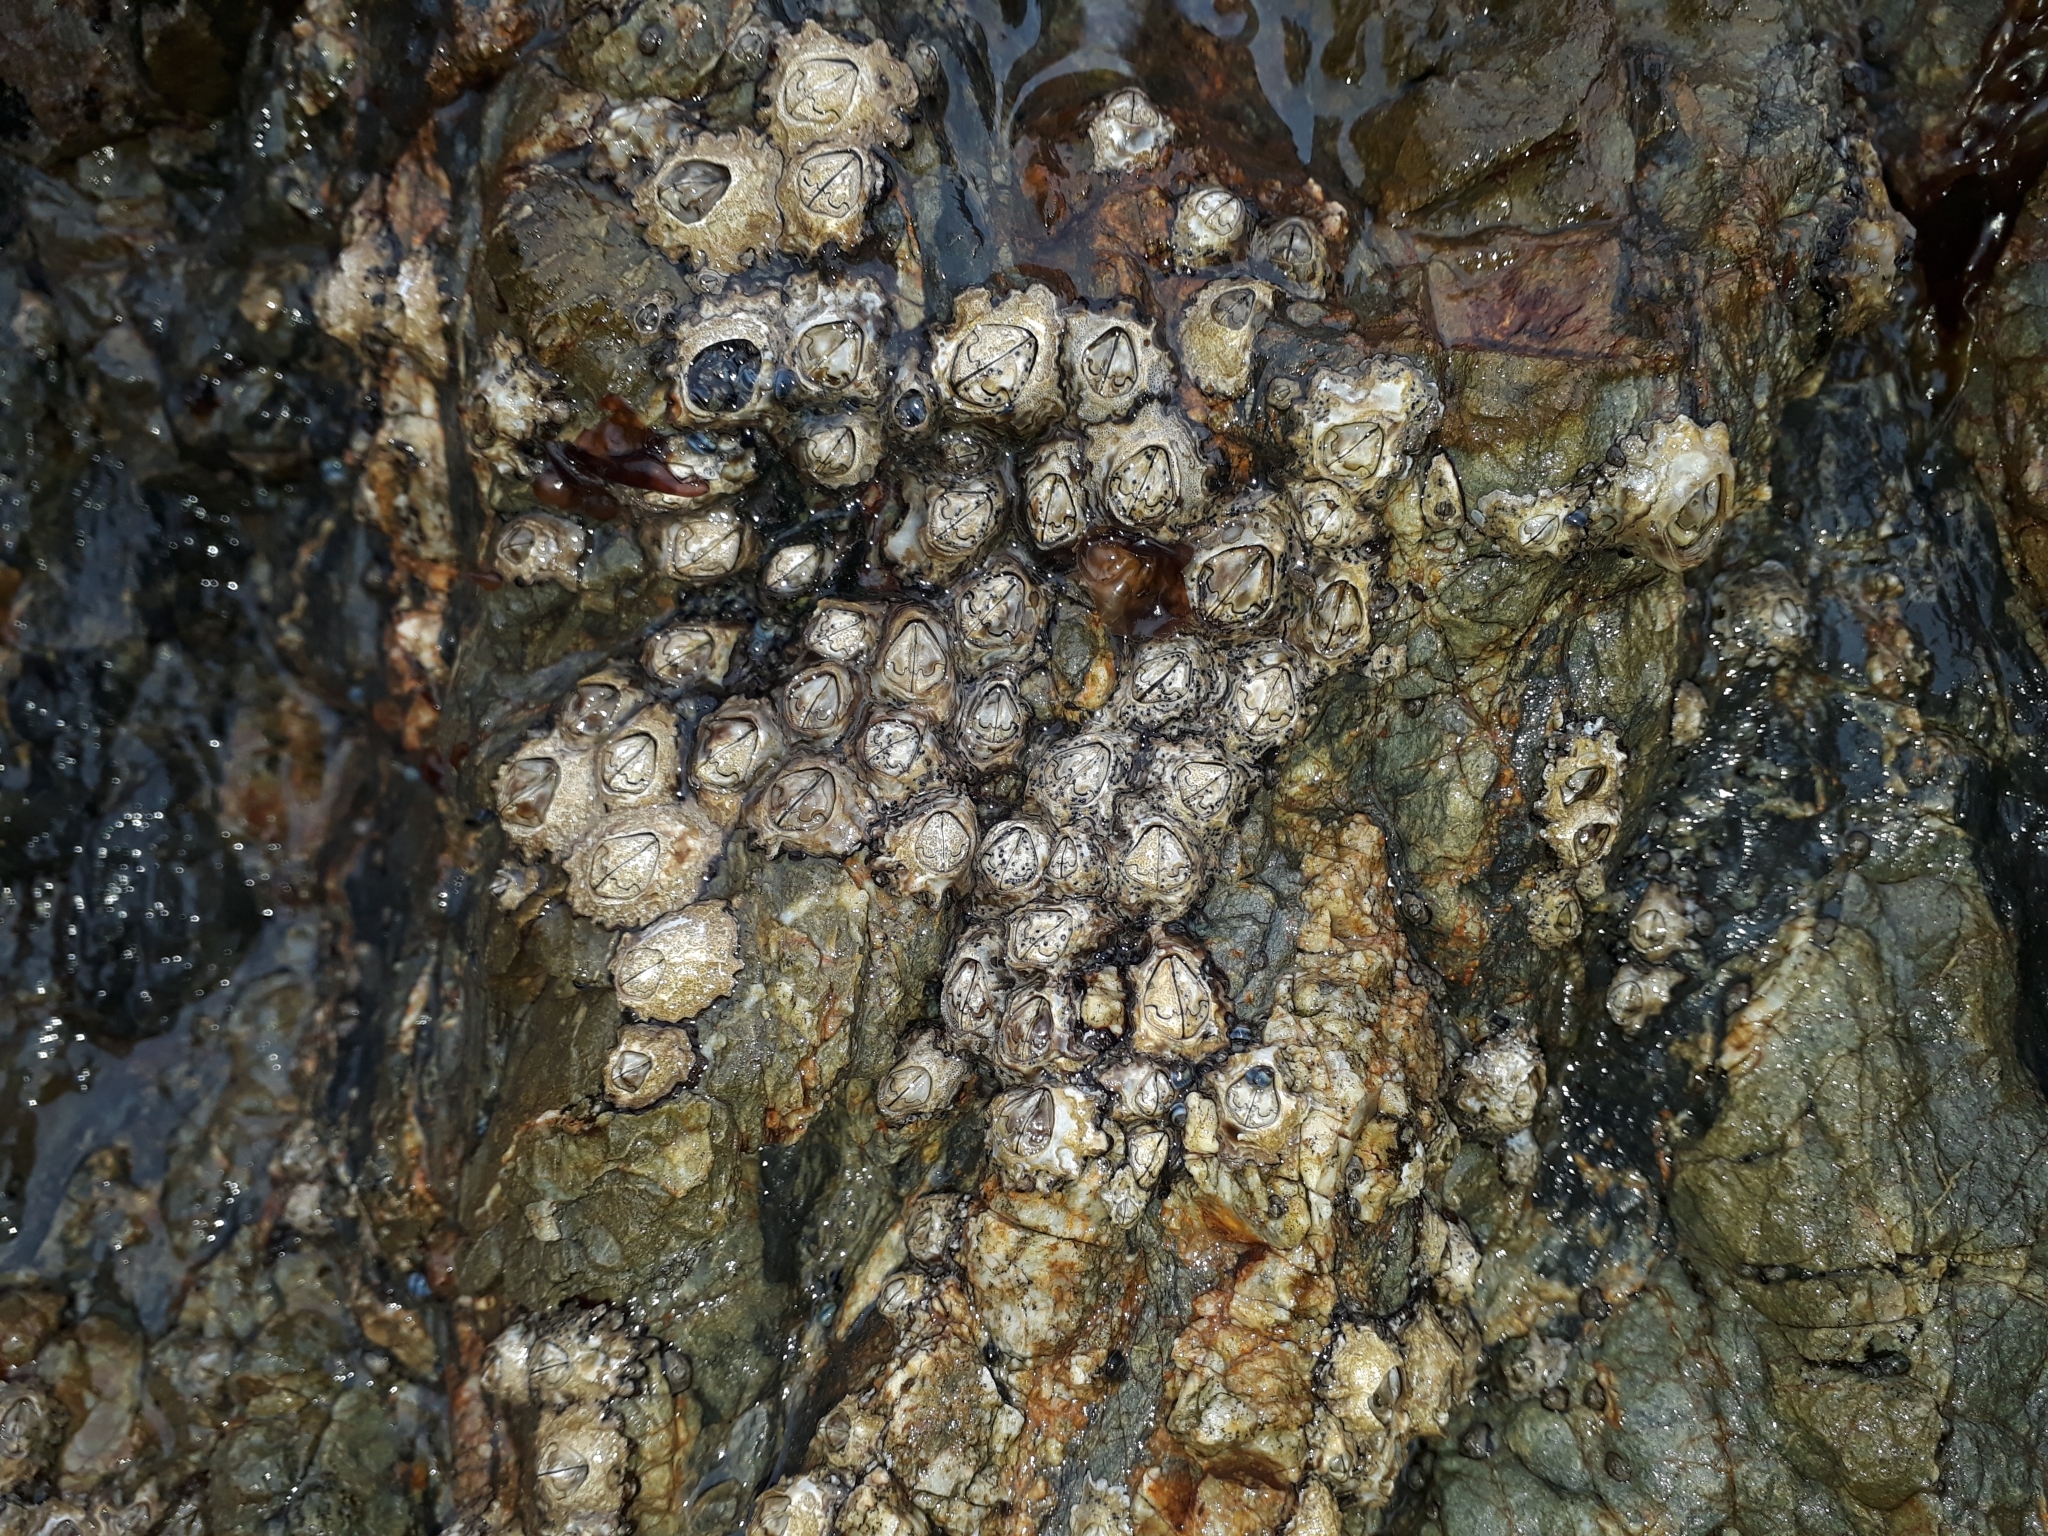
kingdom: Animalia
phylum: Arthropoda
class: Maxillopoda
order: Sessilia
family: Chthamalidae
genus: Chamaesipho
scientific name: Chamaesipho brunnea
